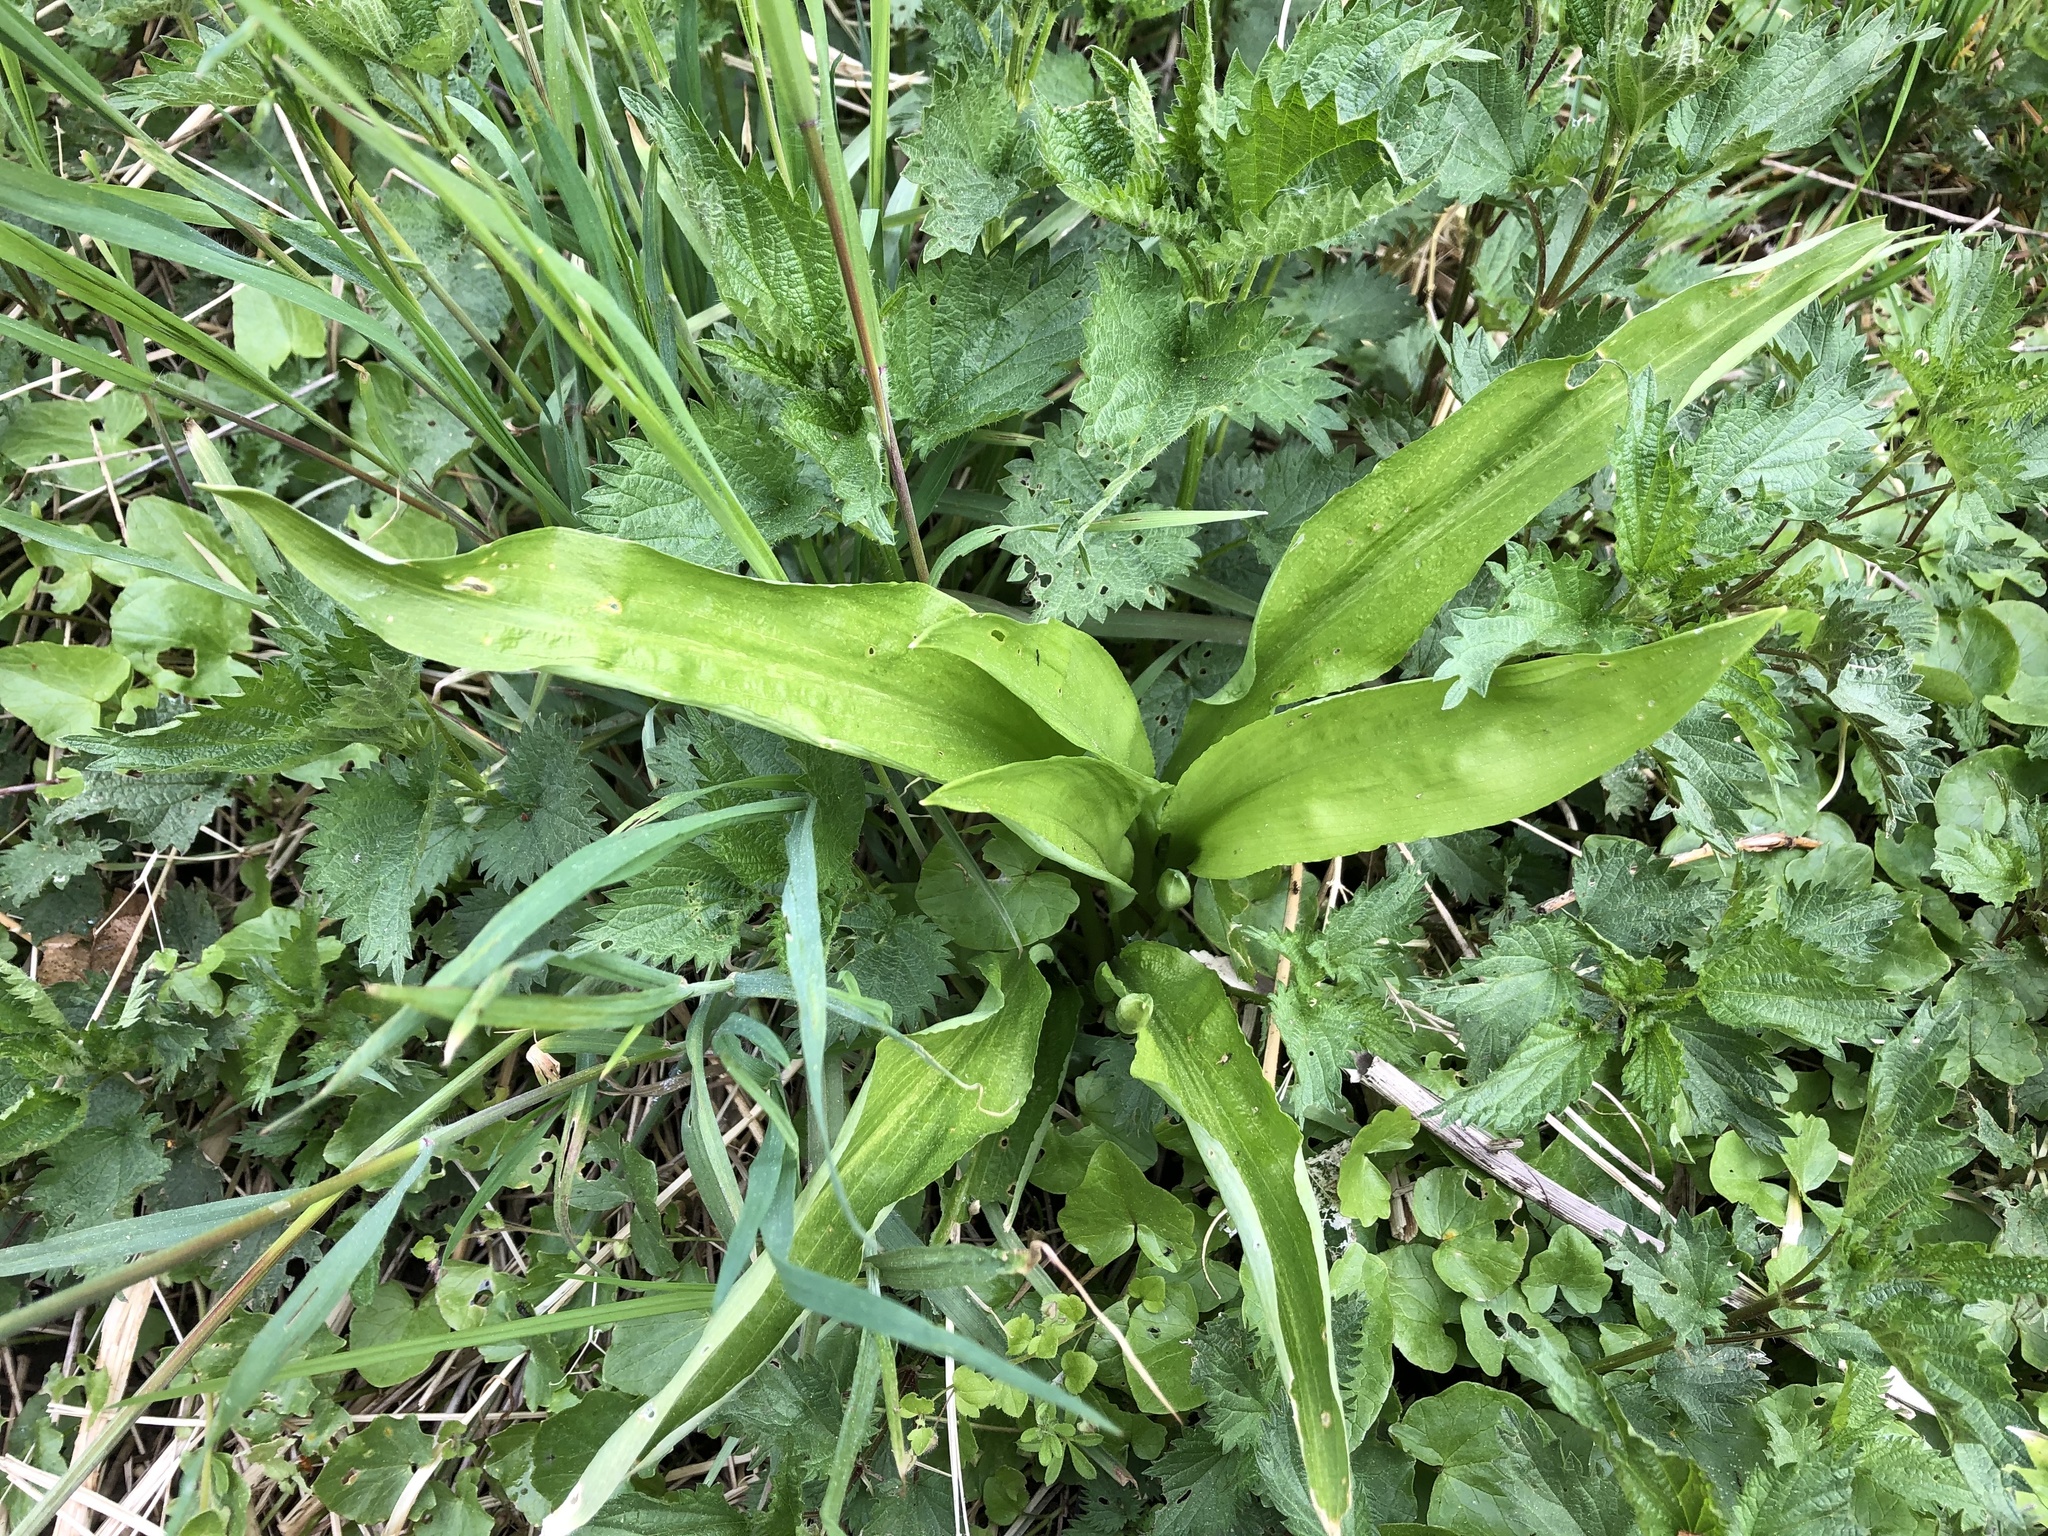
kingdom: Plantae
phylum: Tracheophyta
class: Liliopsida
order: Asparagales
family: Amaryllidaceae
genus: Allium
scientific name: Allium ursinum
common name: Ramsons
